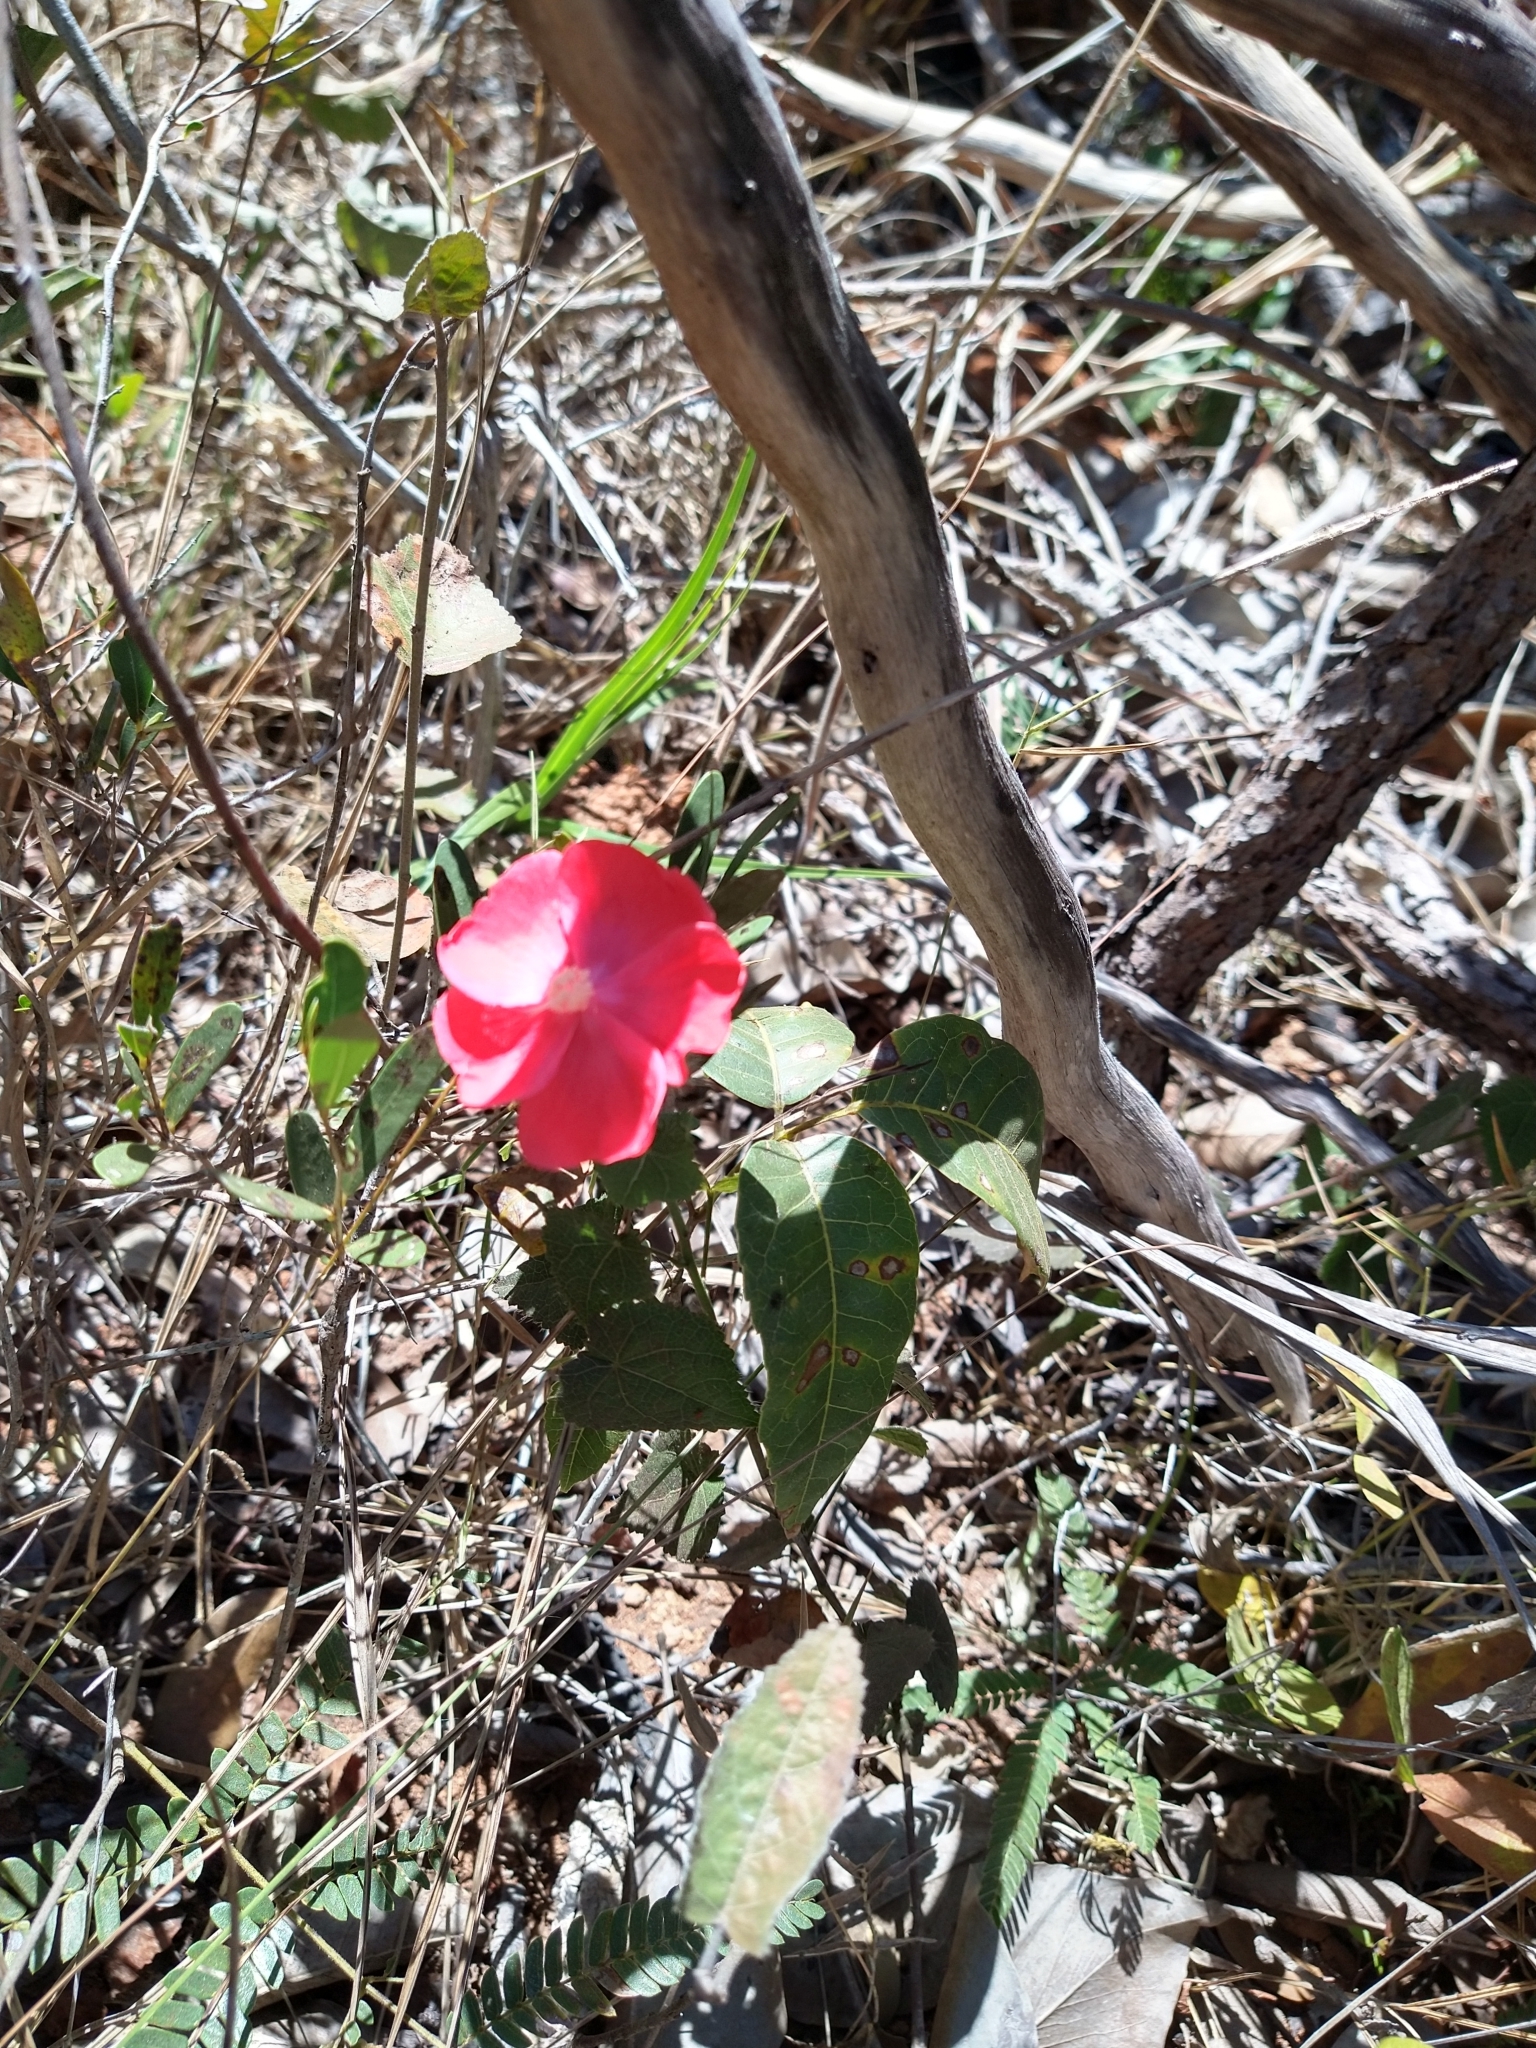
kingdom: Plantae
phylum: Tracheophyta
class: Magnoliopsida
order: Malvales
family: Malvaceae
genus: Pavonia
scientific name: Pavonia rosa-campestris
